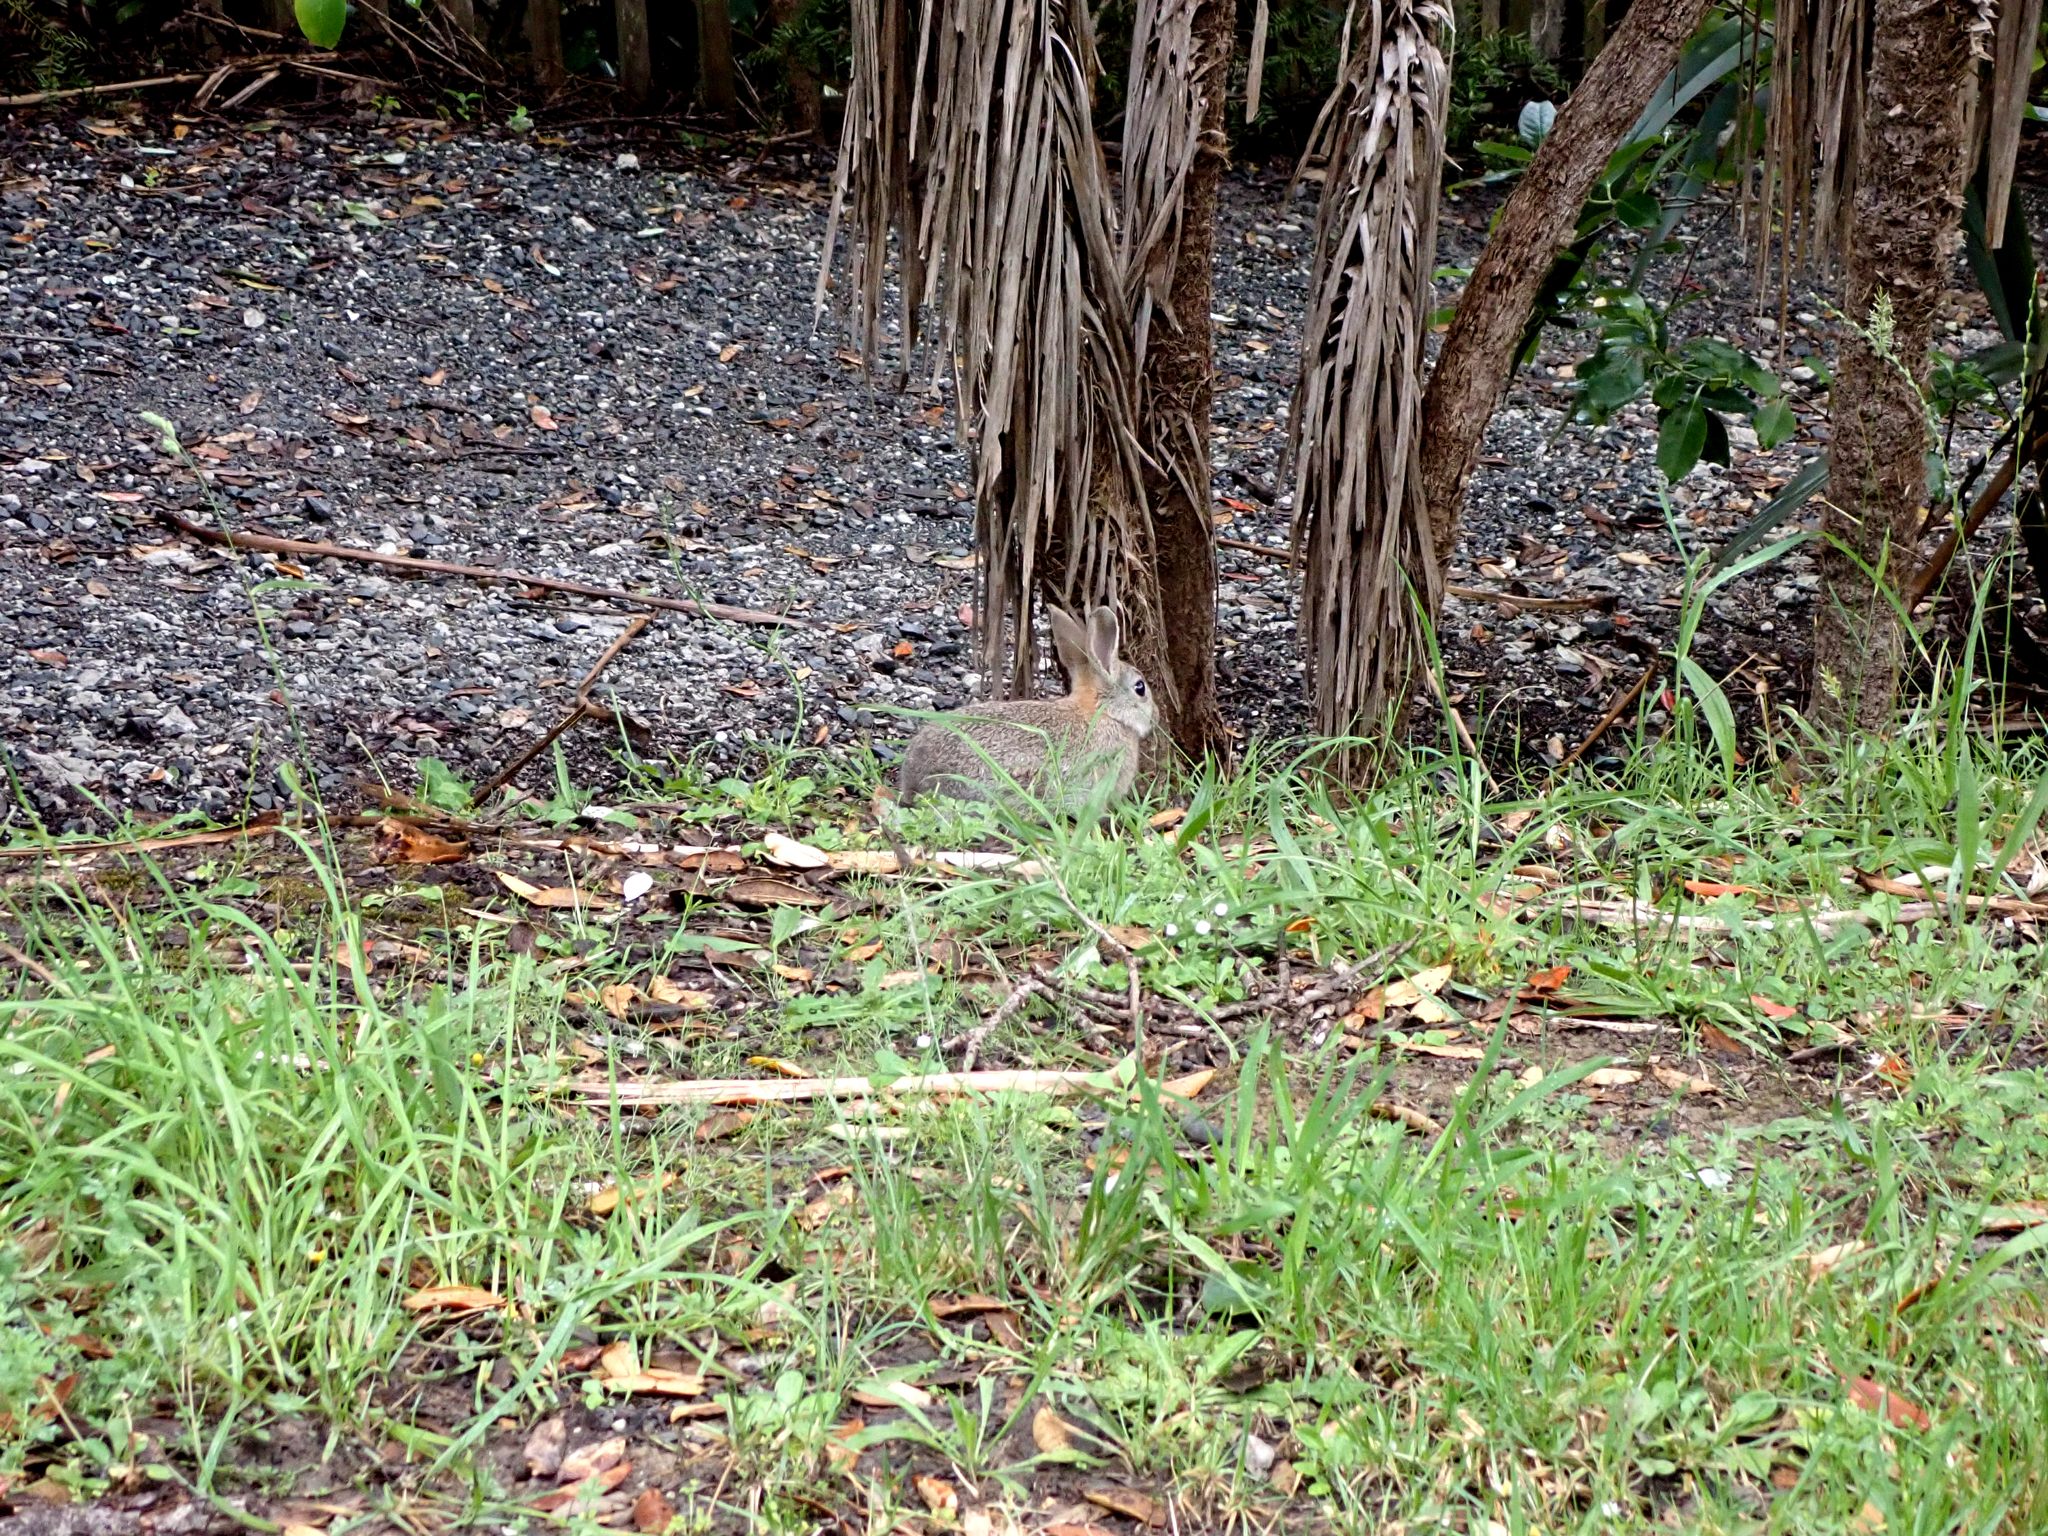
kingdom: Animalia
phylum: Chordata
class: Mammalia
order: Lagomorpha
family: Leporidae
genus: Oryctolagus
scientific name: Oryctolagus cuniculus
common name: European rabbit
